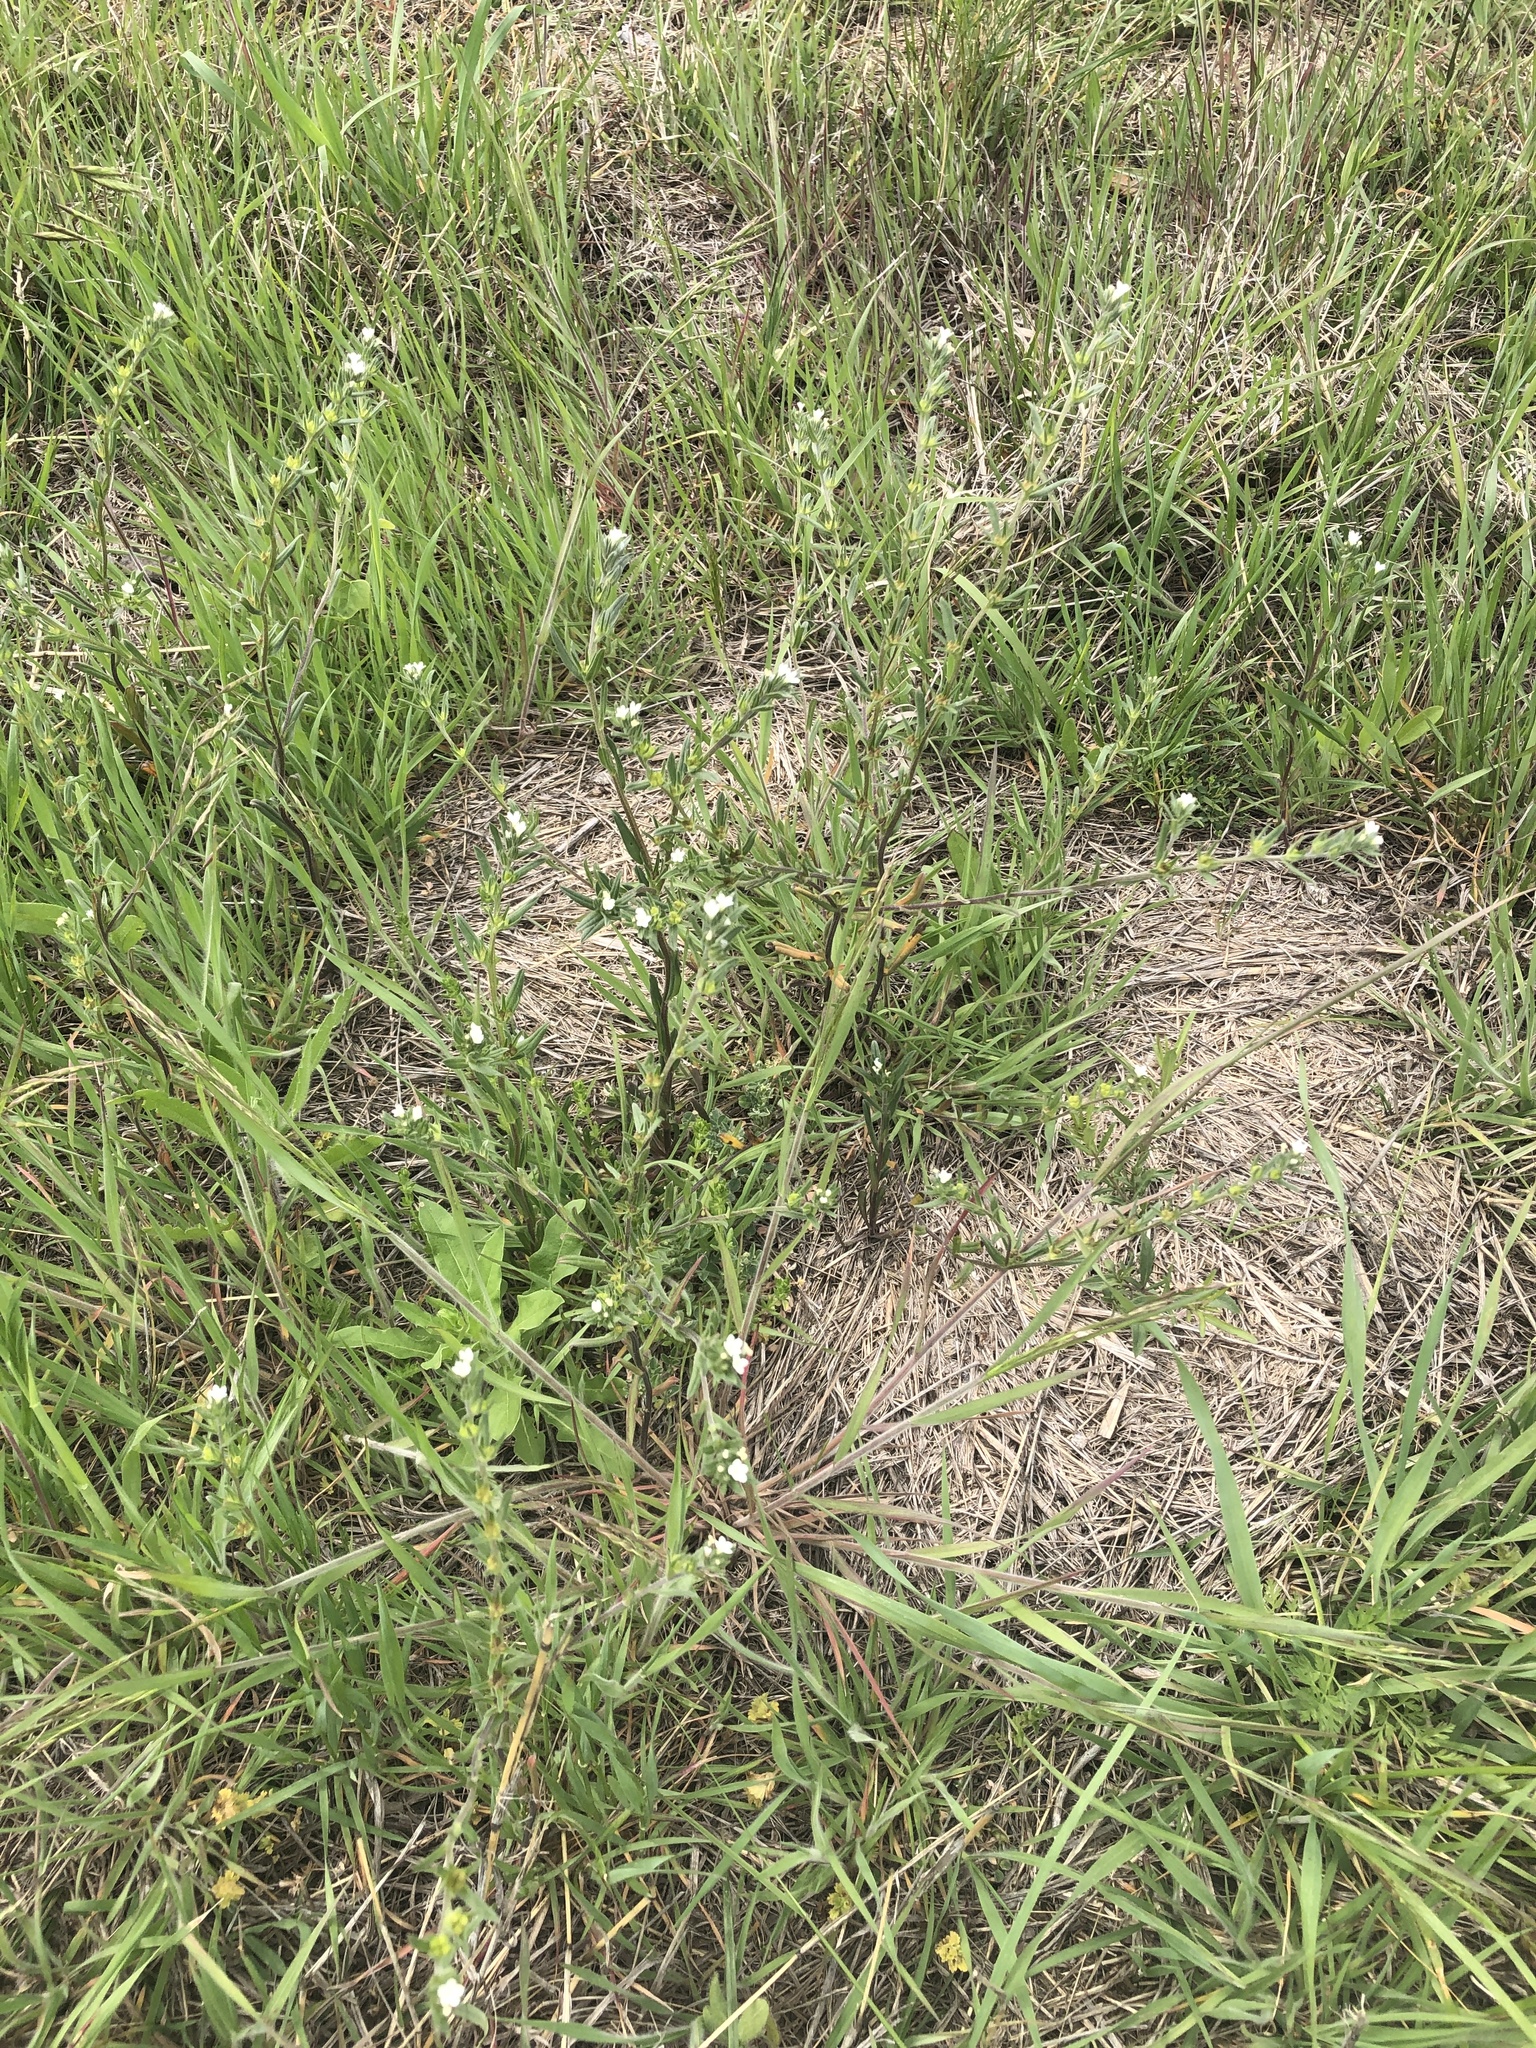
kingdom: Plantae
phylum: Tracheophyta
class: Magnoliopsida
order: Boraginales
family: Boraginaceae
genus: Buglossoides
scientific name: Buglossoides arvensis
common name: Corn gromwell
